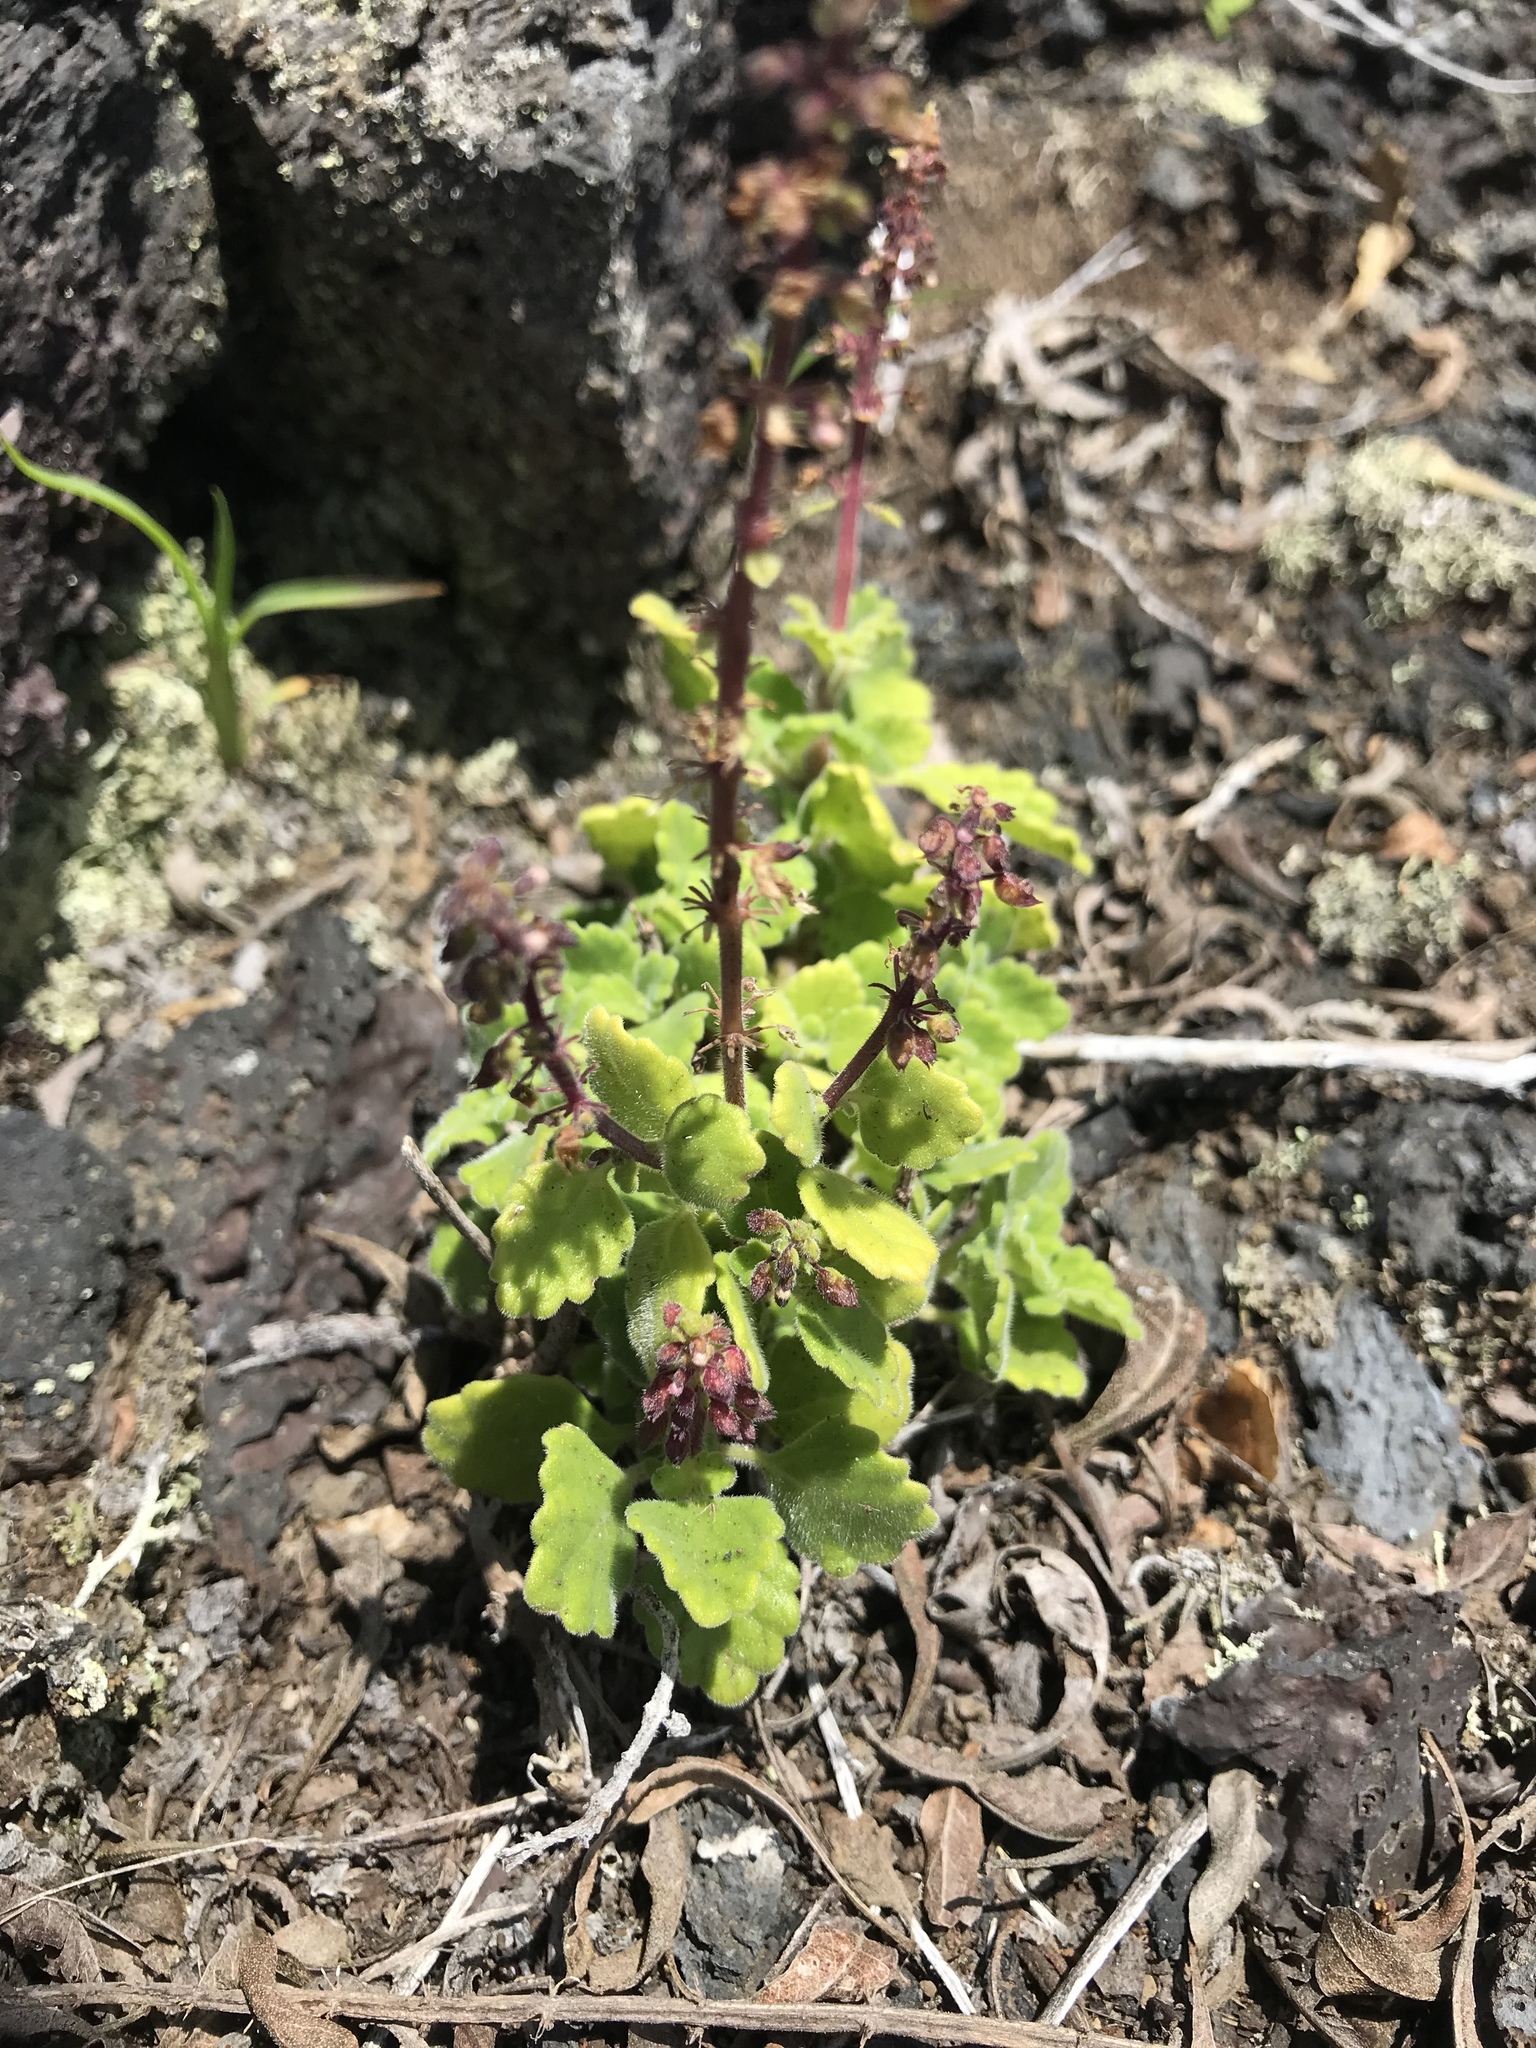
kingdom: Plantae
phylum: Tracheophyta
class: Magnoliopsida
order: Lamiales
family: Lamiaceae
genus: Coleus
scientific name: Coleus australis
